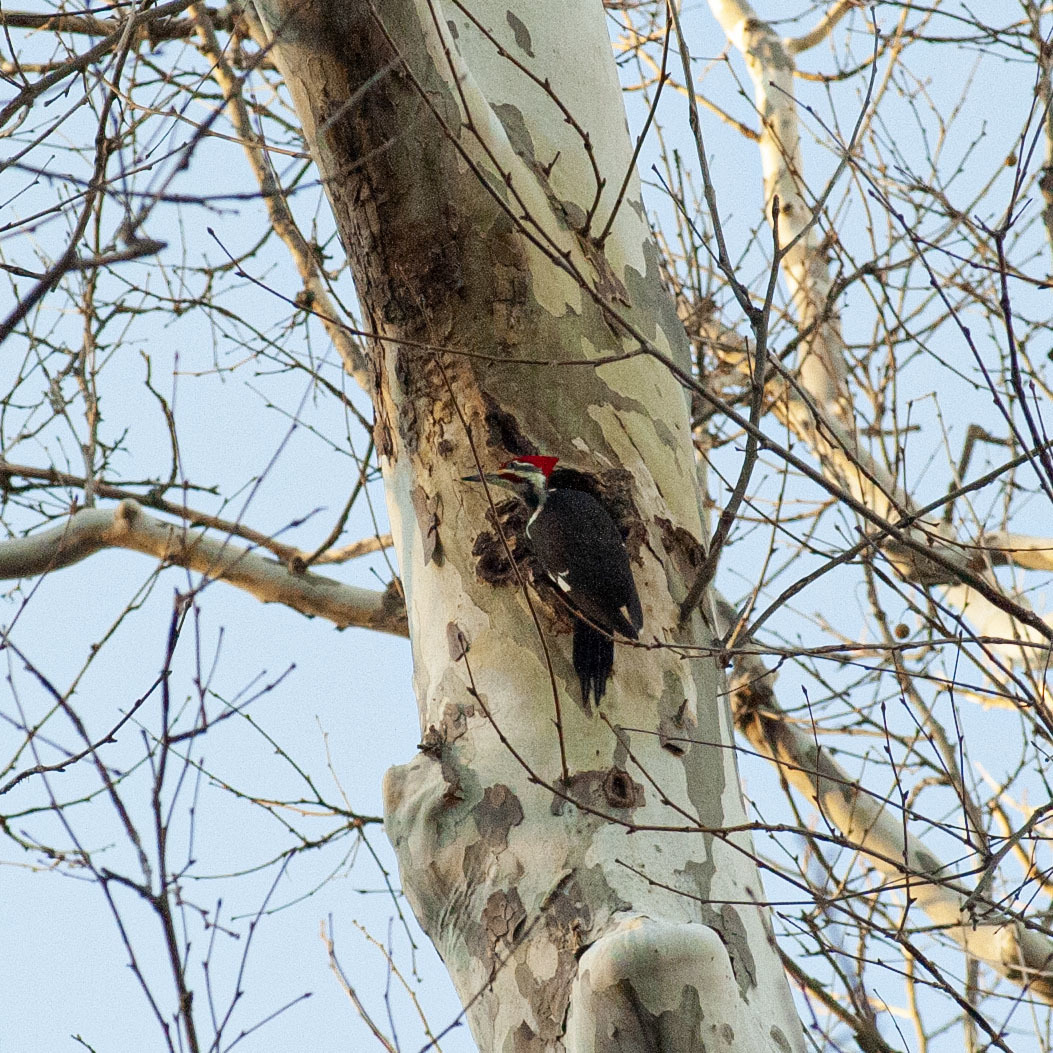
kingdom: Animalia
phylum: Chordata
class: Aves
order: Piciformes
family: Picidae
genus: Dryocopus
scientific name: Dryocopus pileatus
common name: Pileated woodpecker
